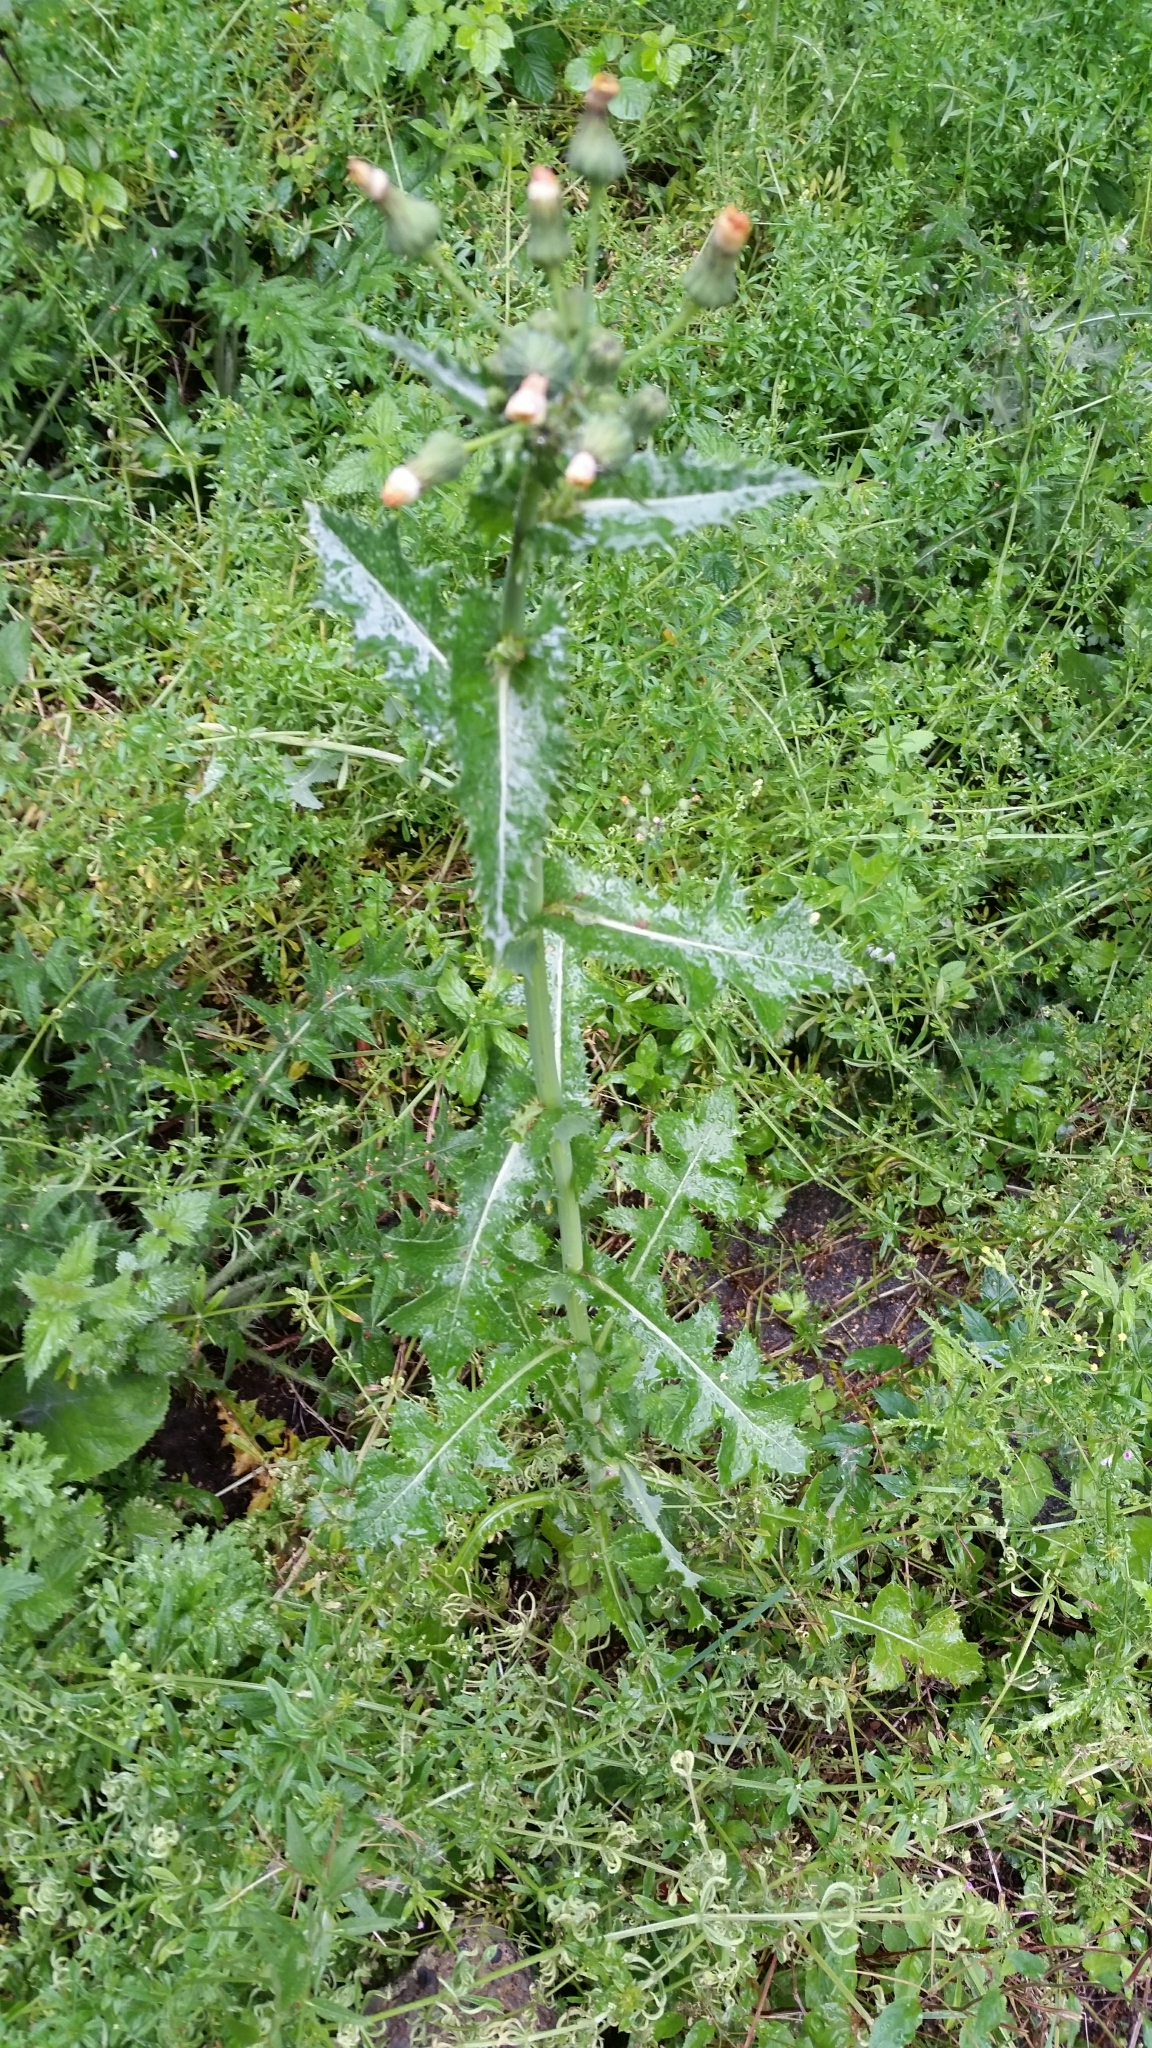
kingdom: Plantae
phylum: Tracheophyta
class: Magnoliopsida
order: Asterales
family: Asteraceae
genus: Sonchus
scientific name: Sonchus asper
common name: Prickly sow-thistle
